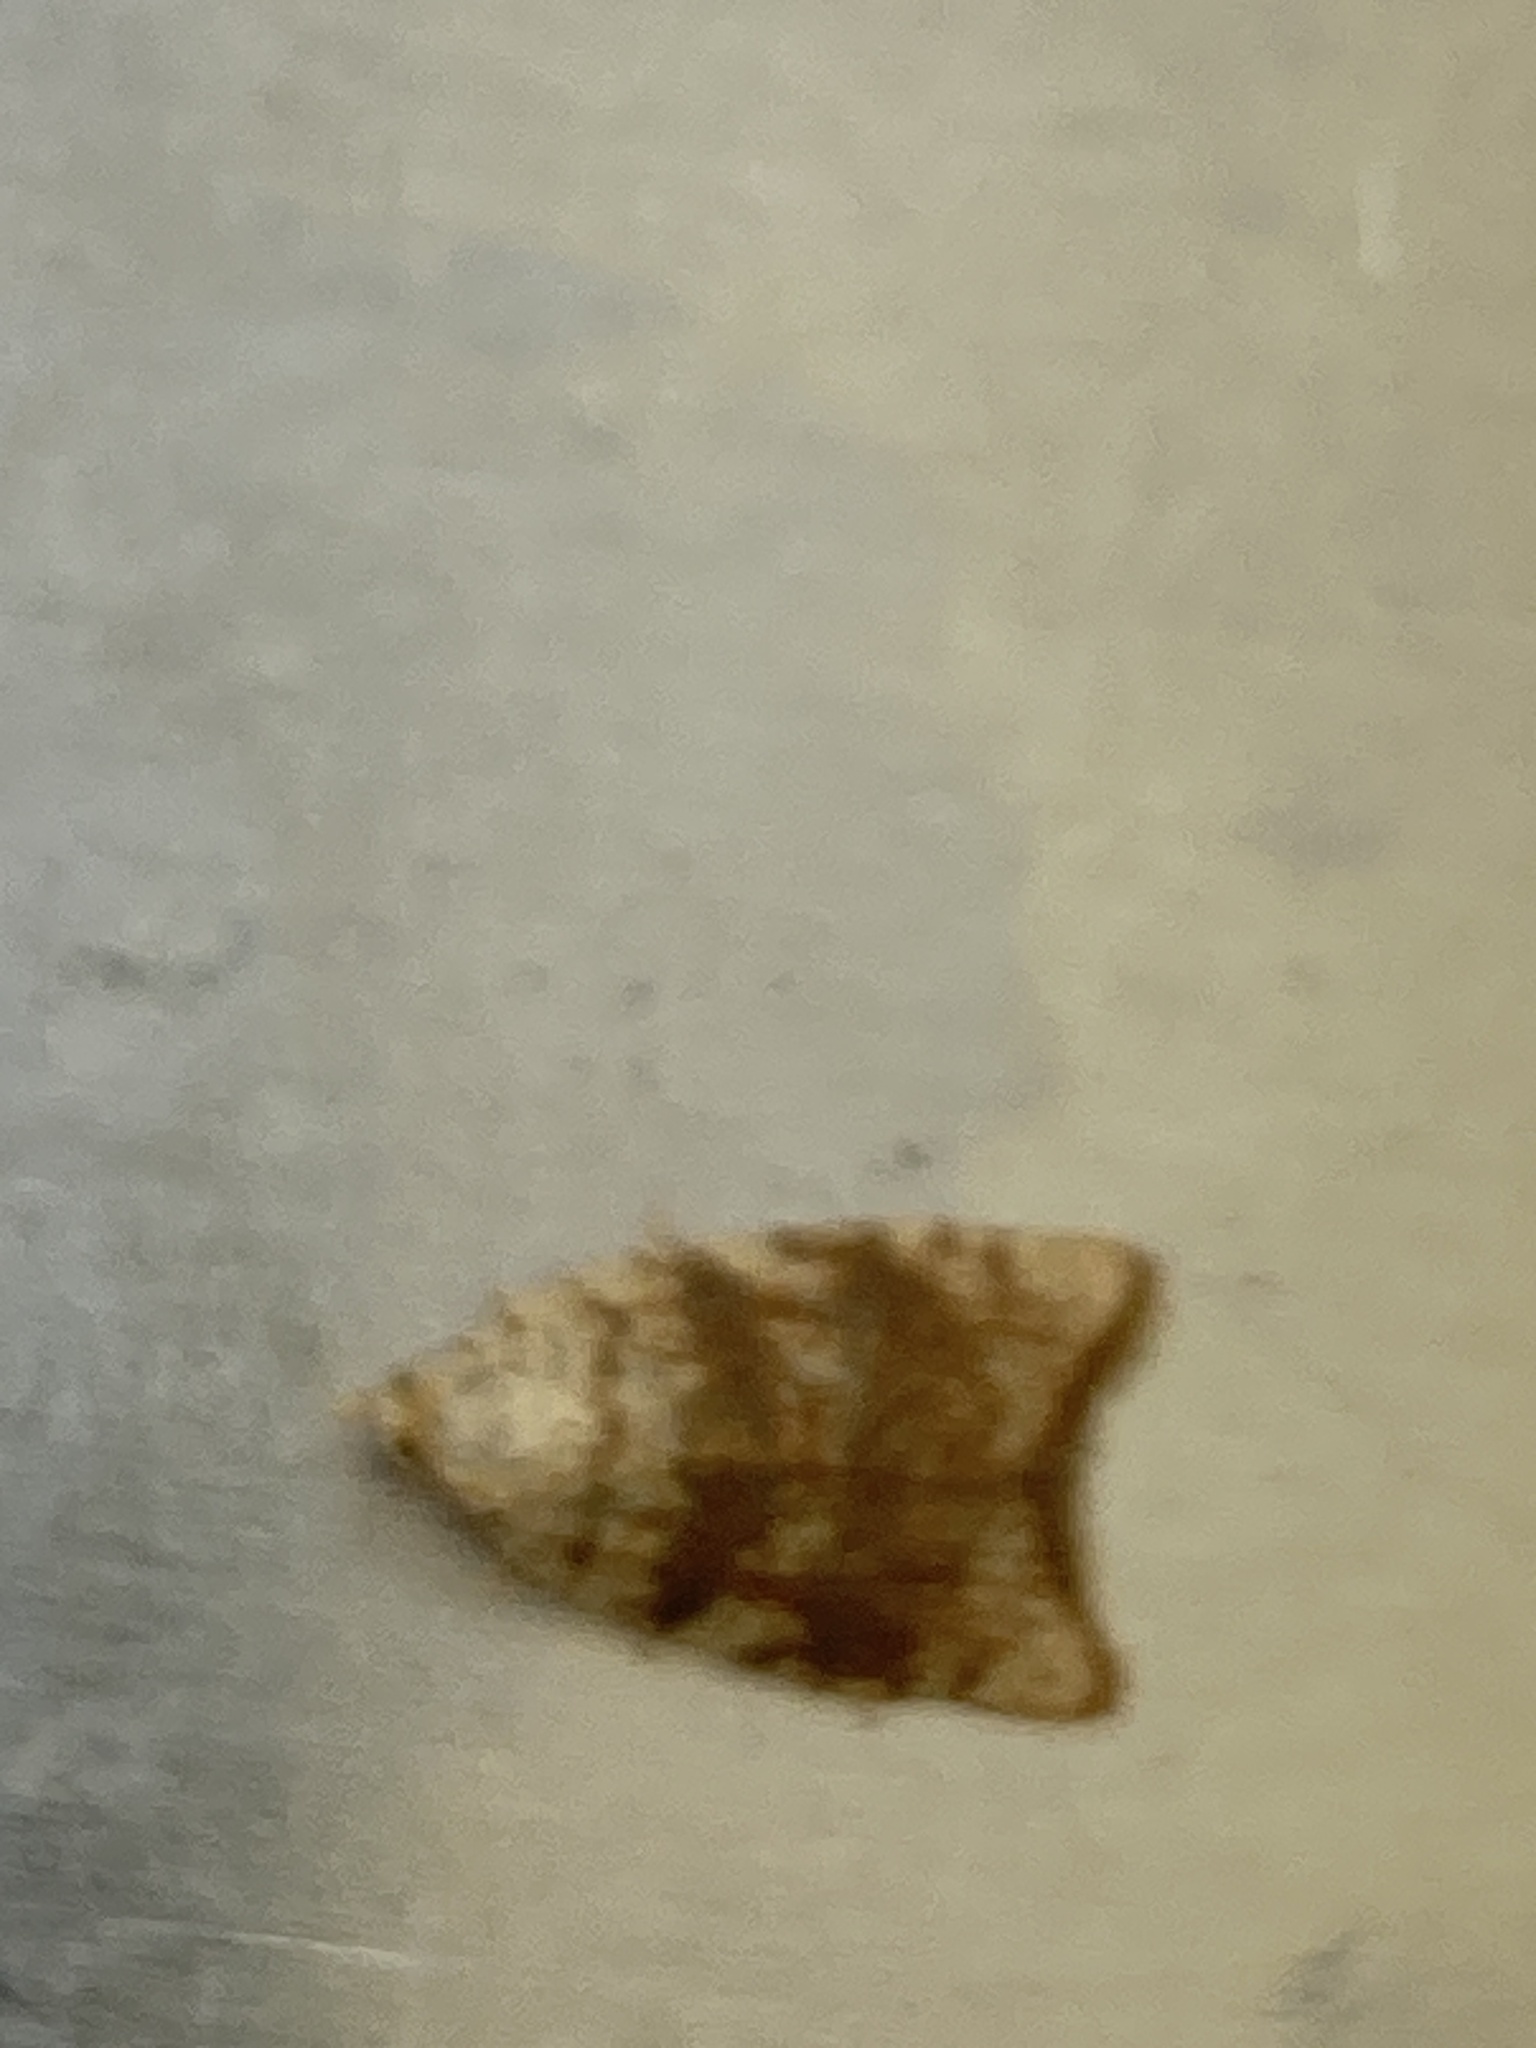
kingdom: Animalia
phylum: Arthropoda
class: Insecta
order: Lepidoptera
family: Tortricidae
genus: Aleimma
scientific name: Aleimma loeflingiana
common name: Yellow oak button
